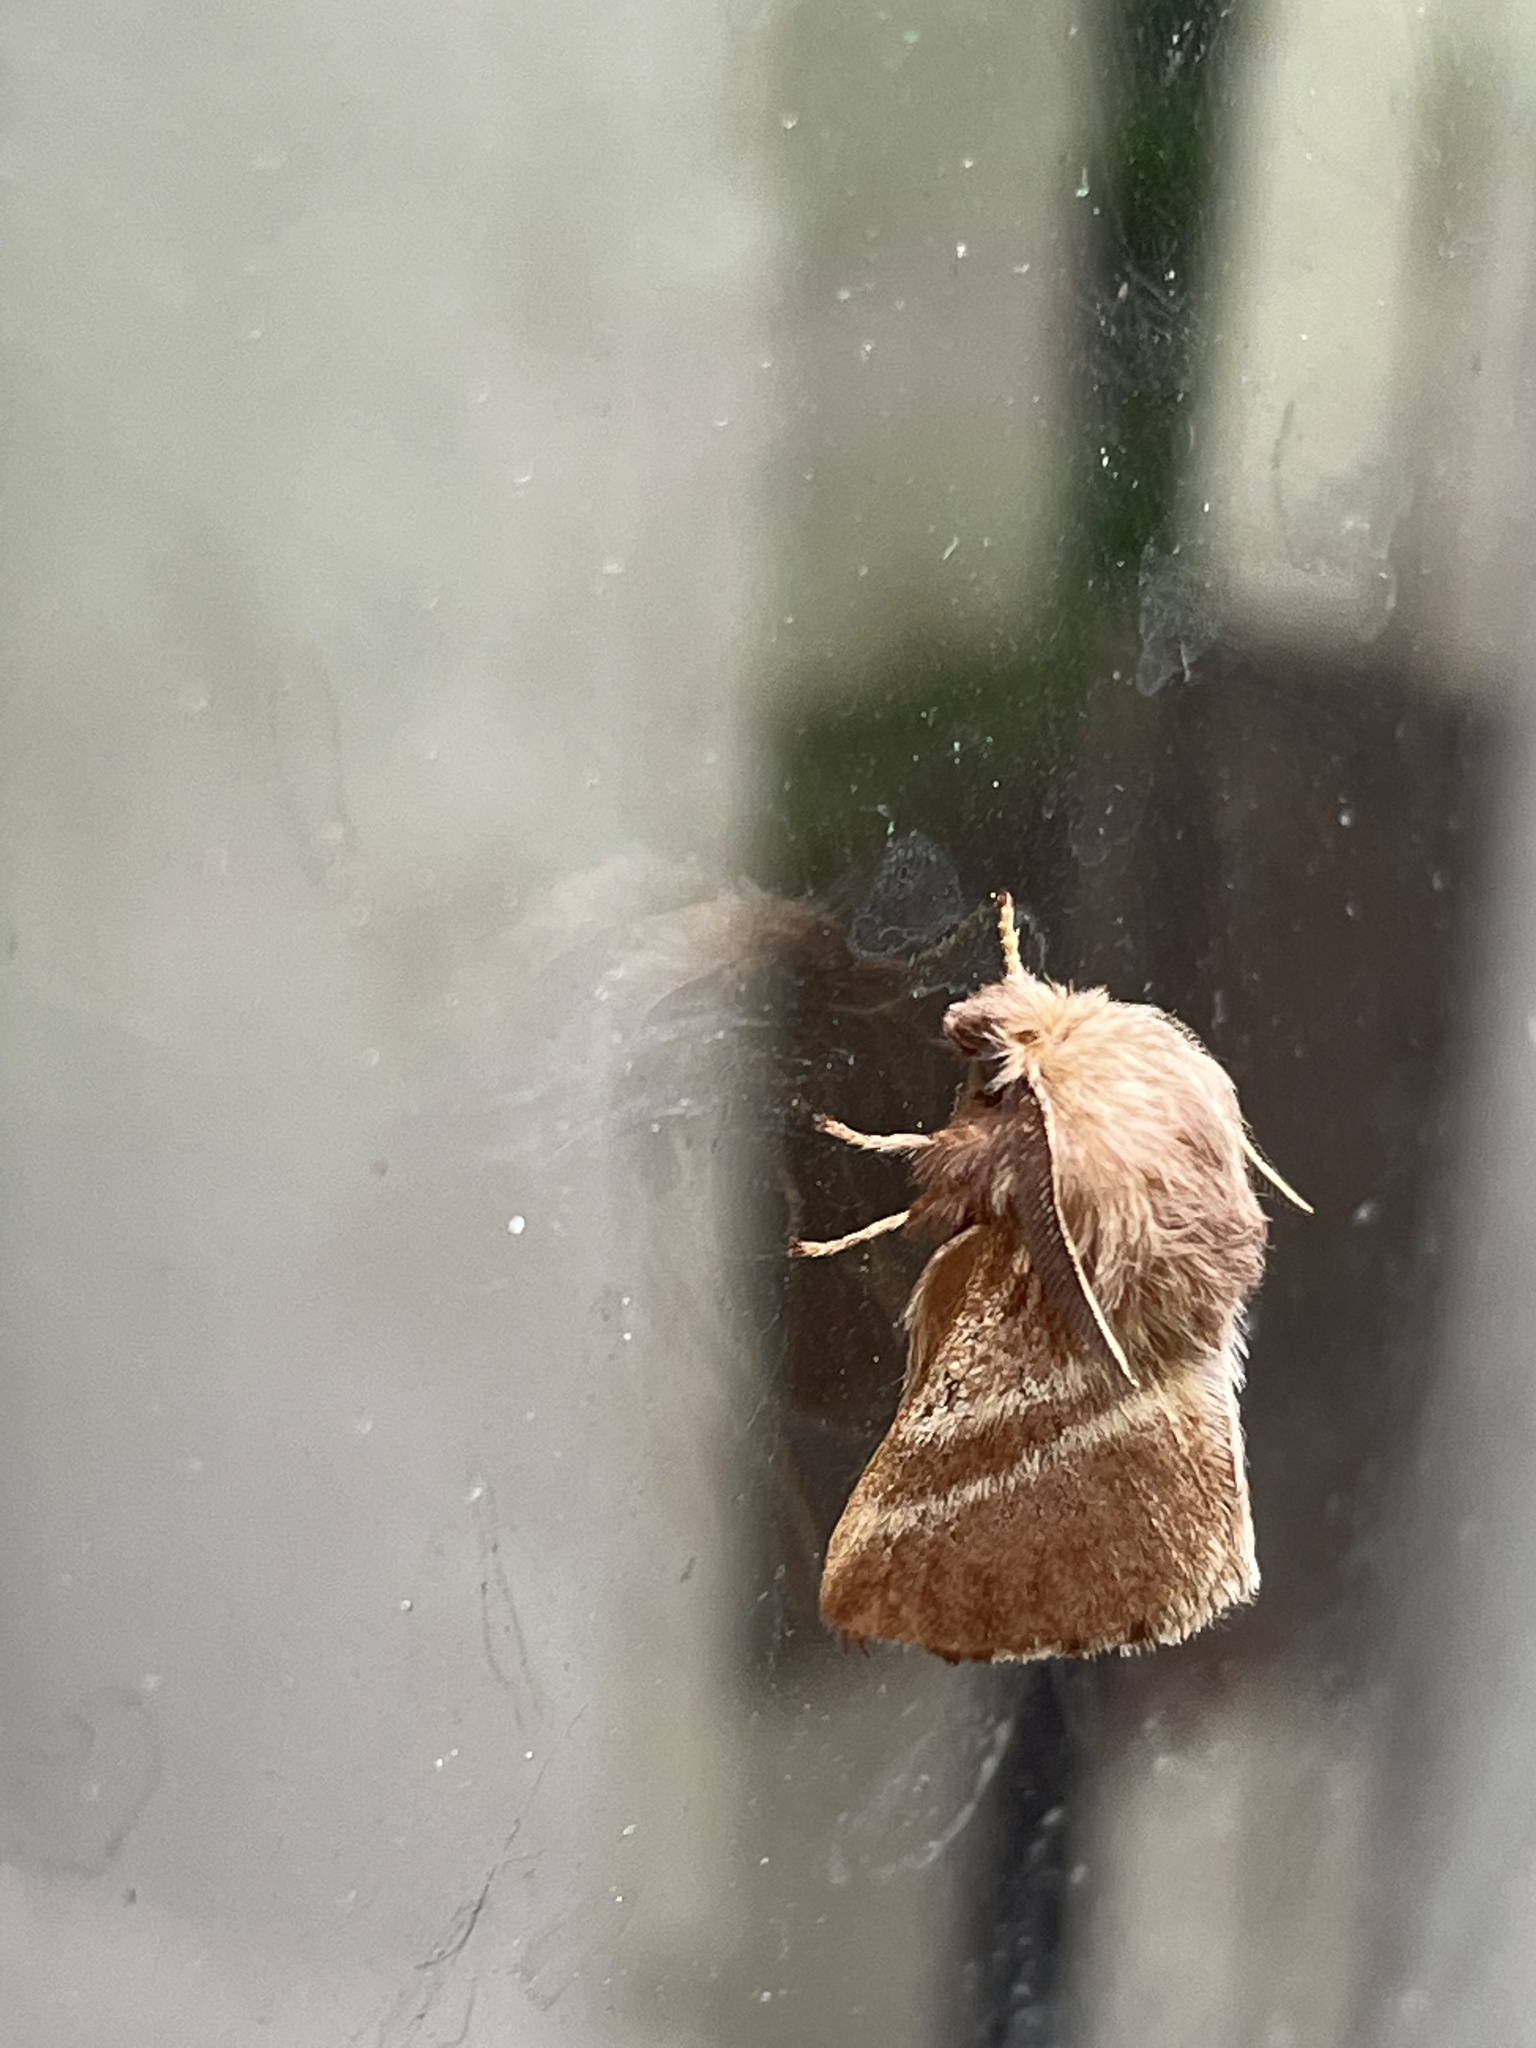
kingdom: Animalia
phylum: Arthropoda
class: Insecta
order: Lepidoptera
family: Lasiocampidae
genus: Malacosoma
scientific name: Malacosoma americana
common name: Eastern tent caterpillar moth
